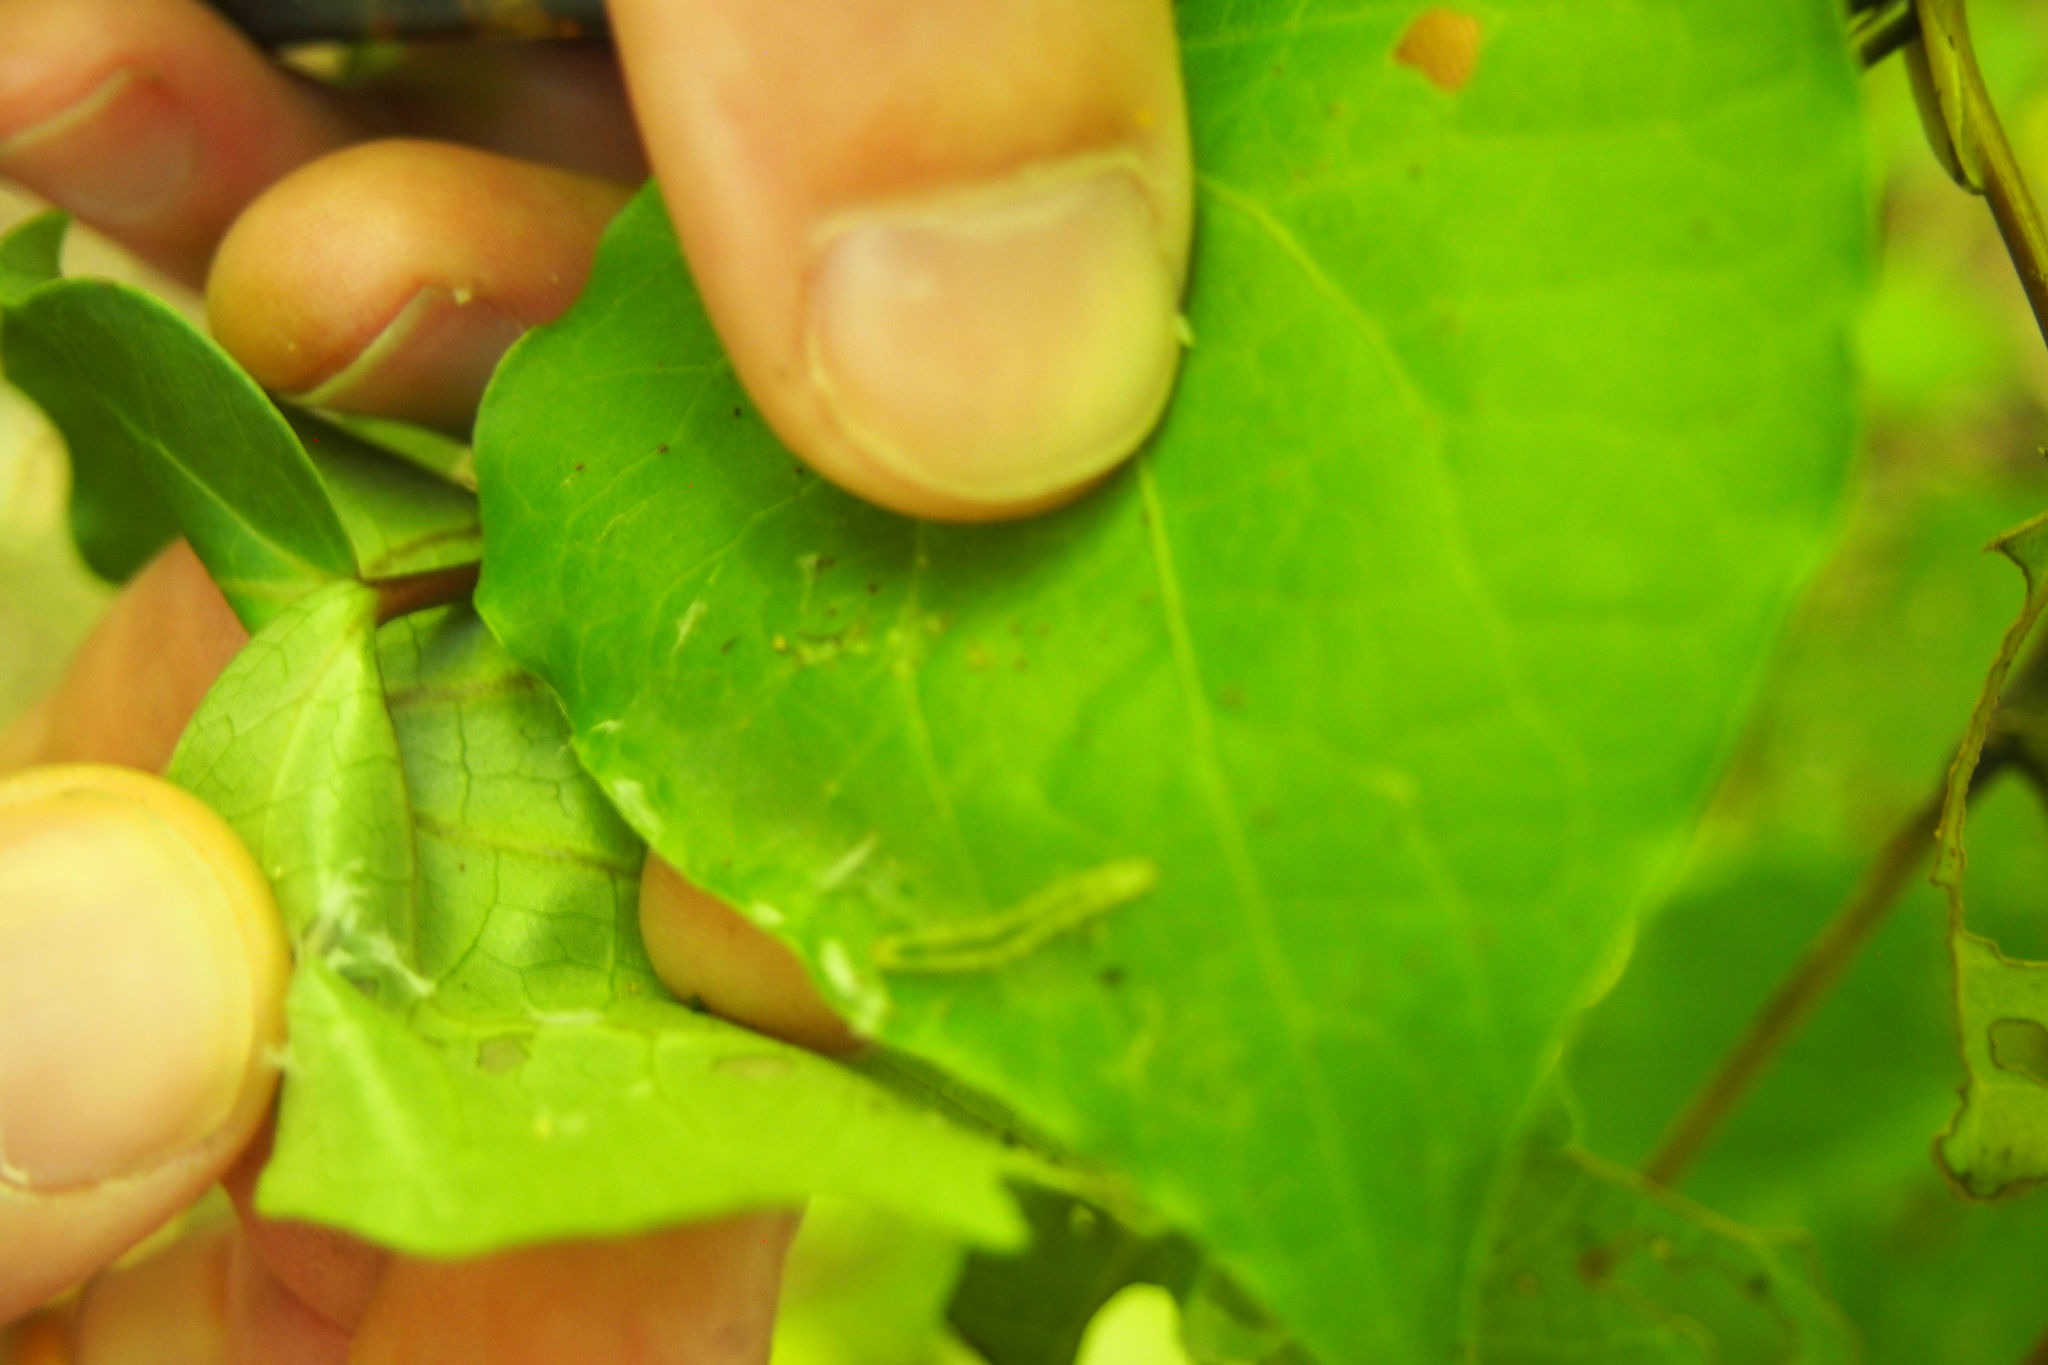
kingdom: Animalia
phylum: Arthropoda
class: Insecta
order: Lepidoptera
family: Geometridae
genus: Cleora
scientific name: Cleora scriptaria
